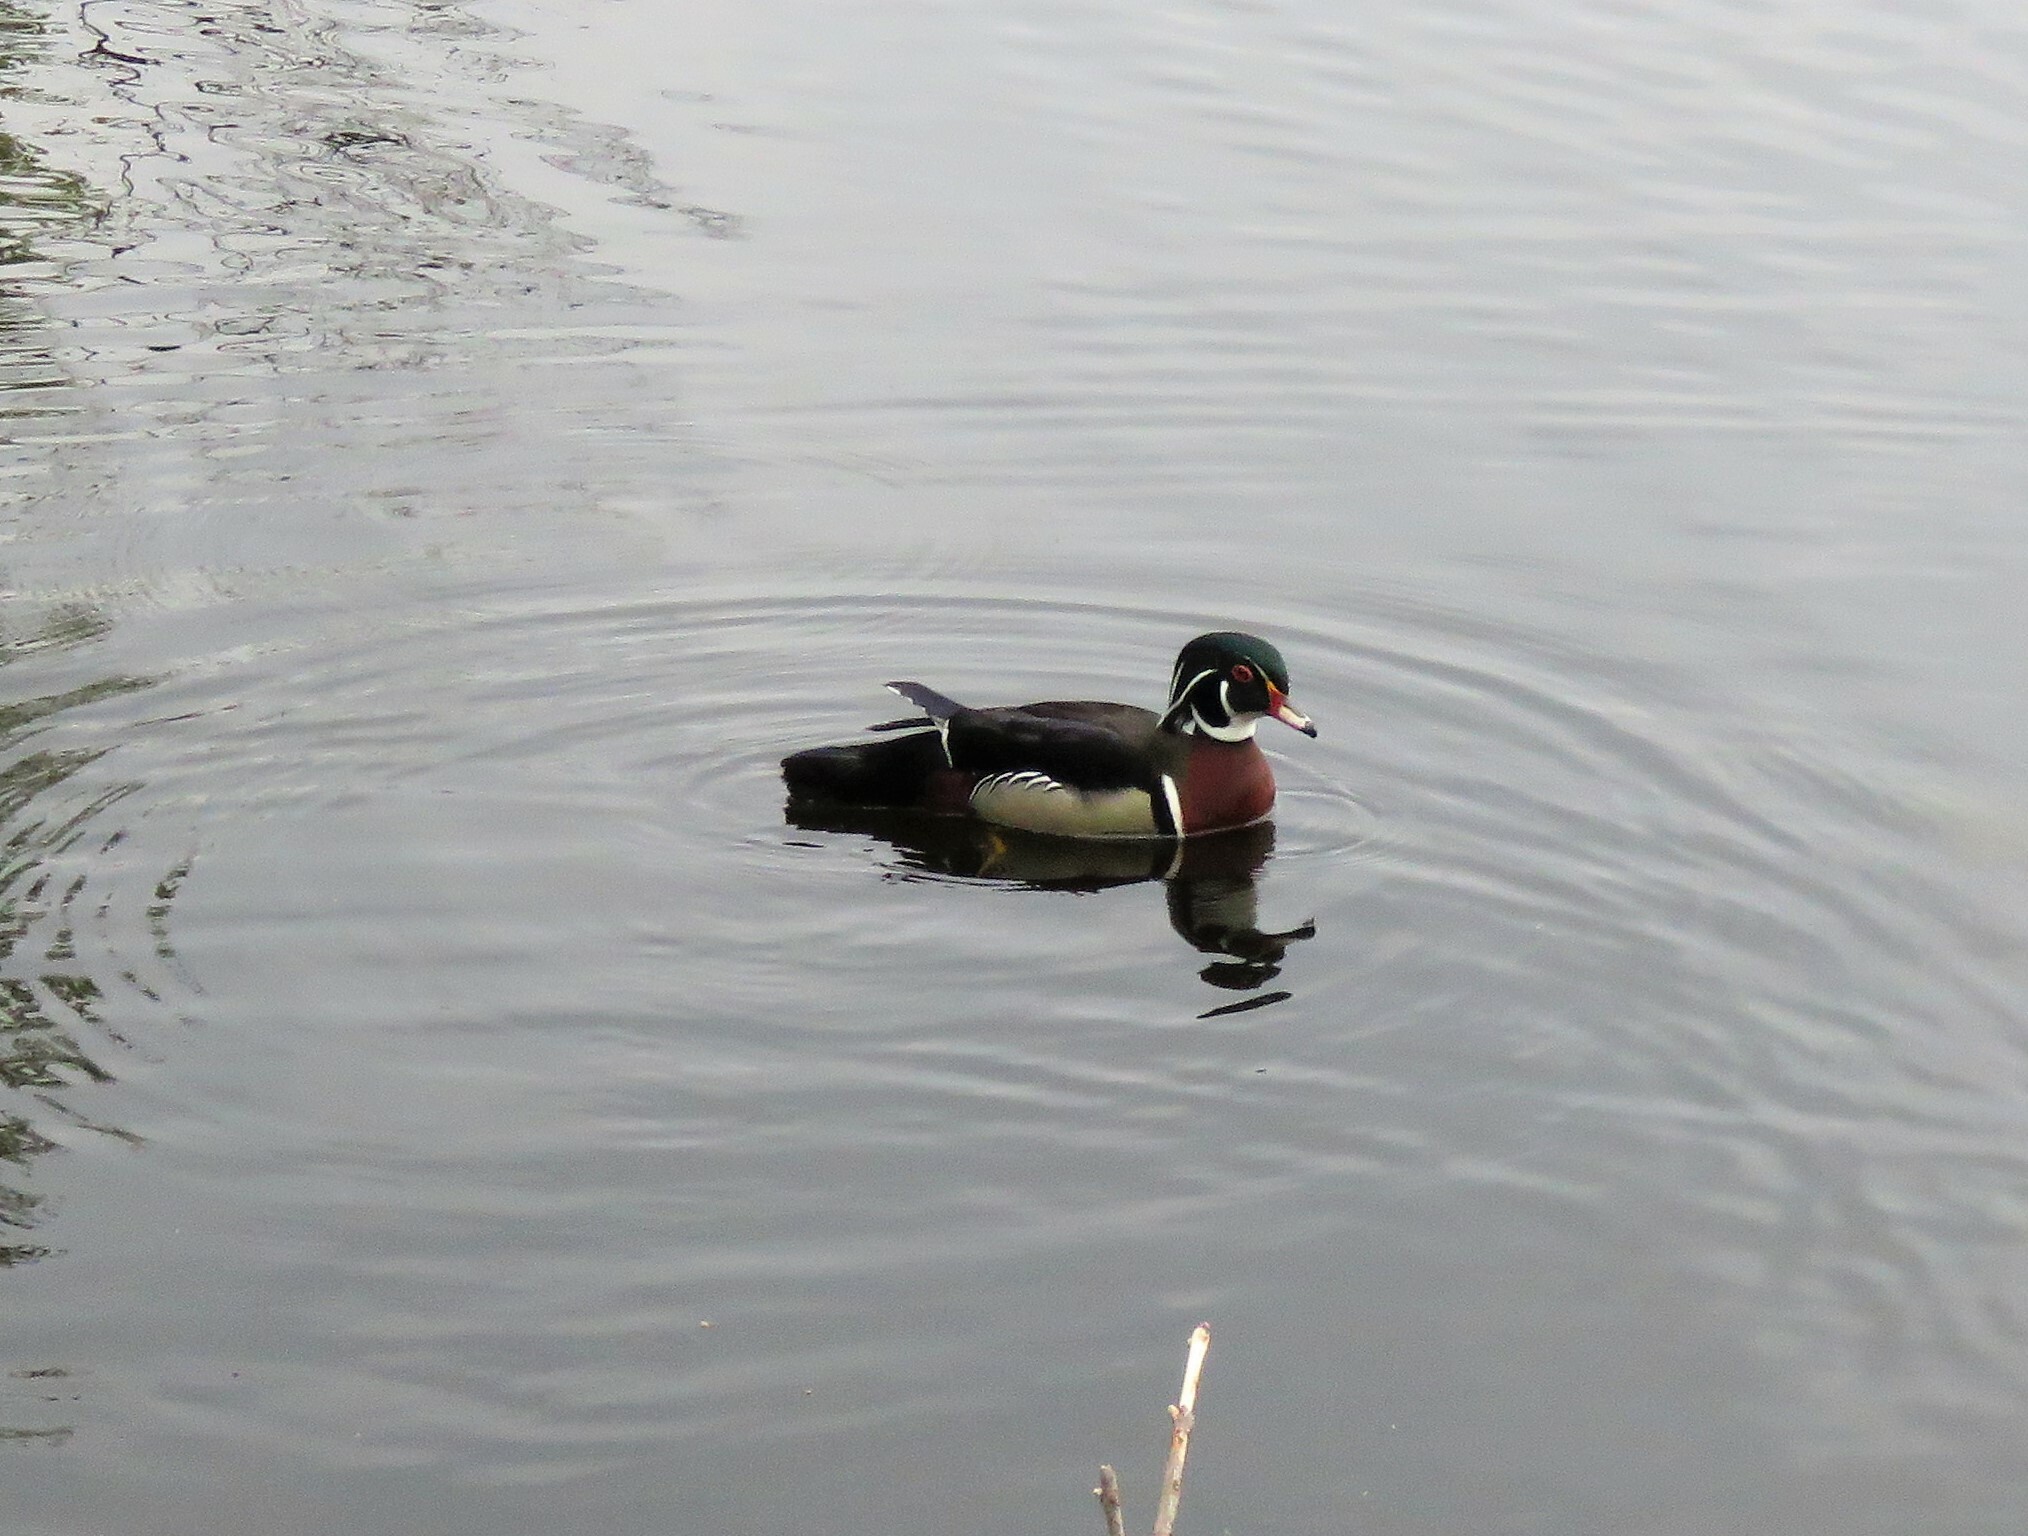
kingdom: Animalia
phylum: Chordata
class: Aves
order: Anseriformes
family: Anatidae
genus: Aix
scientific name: Aix sponsa
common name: Wood duck
